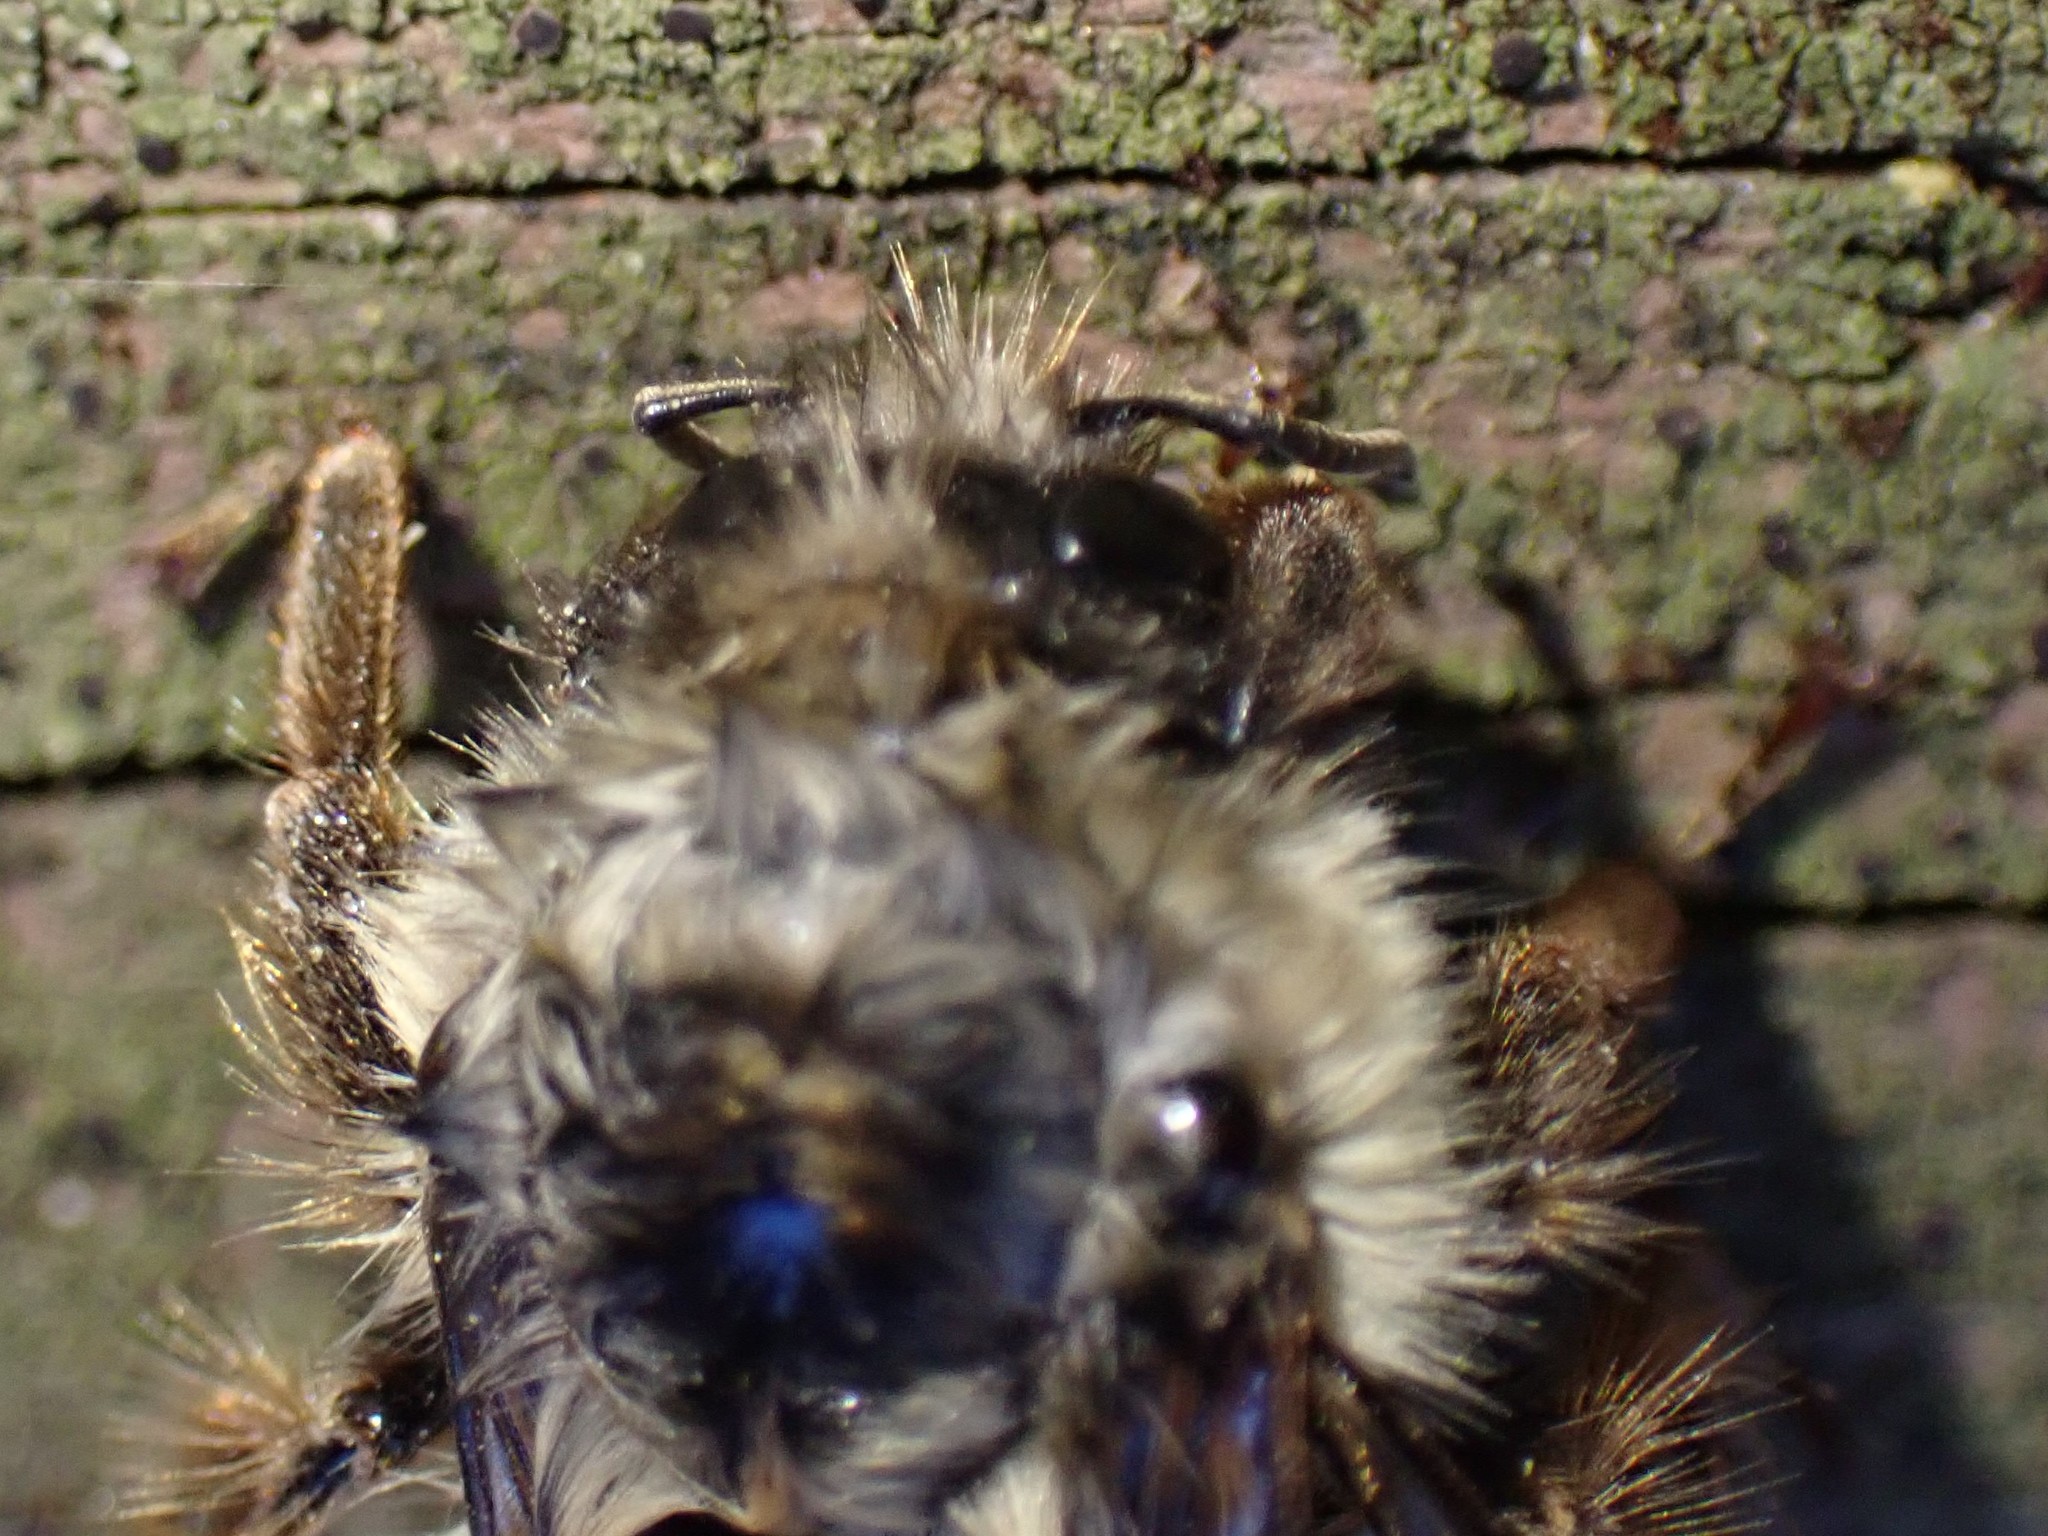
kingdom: Animalia
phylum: Arthropoda
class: Insecta
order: Hymenoptera
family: Apidae
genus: Bombus
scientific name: Bombus mixtus
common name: Fuzzy-horned bumble bee
